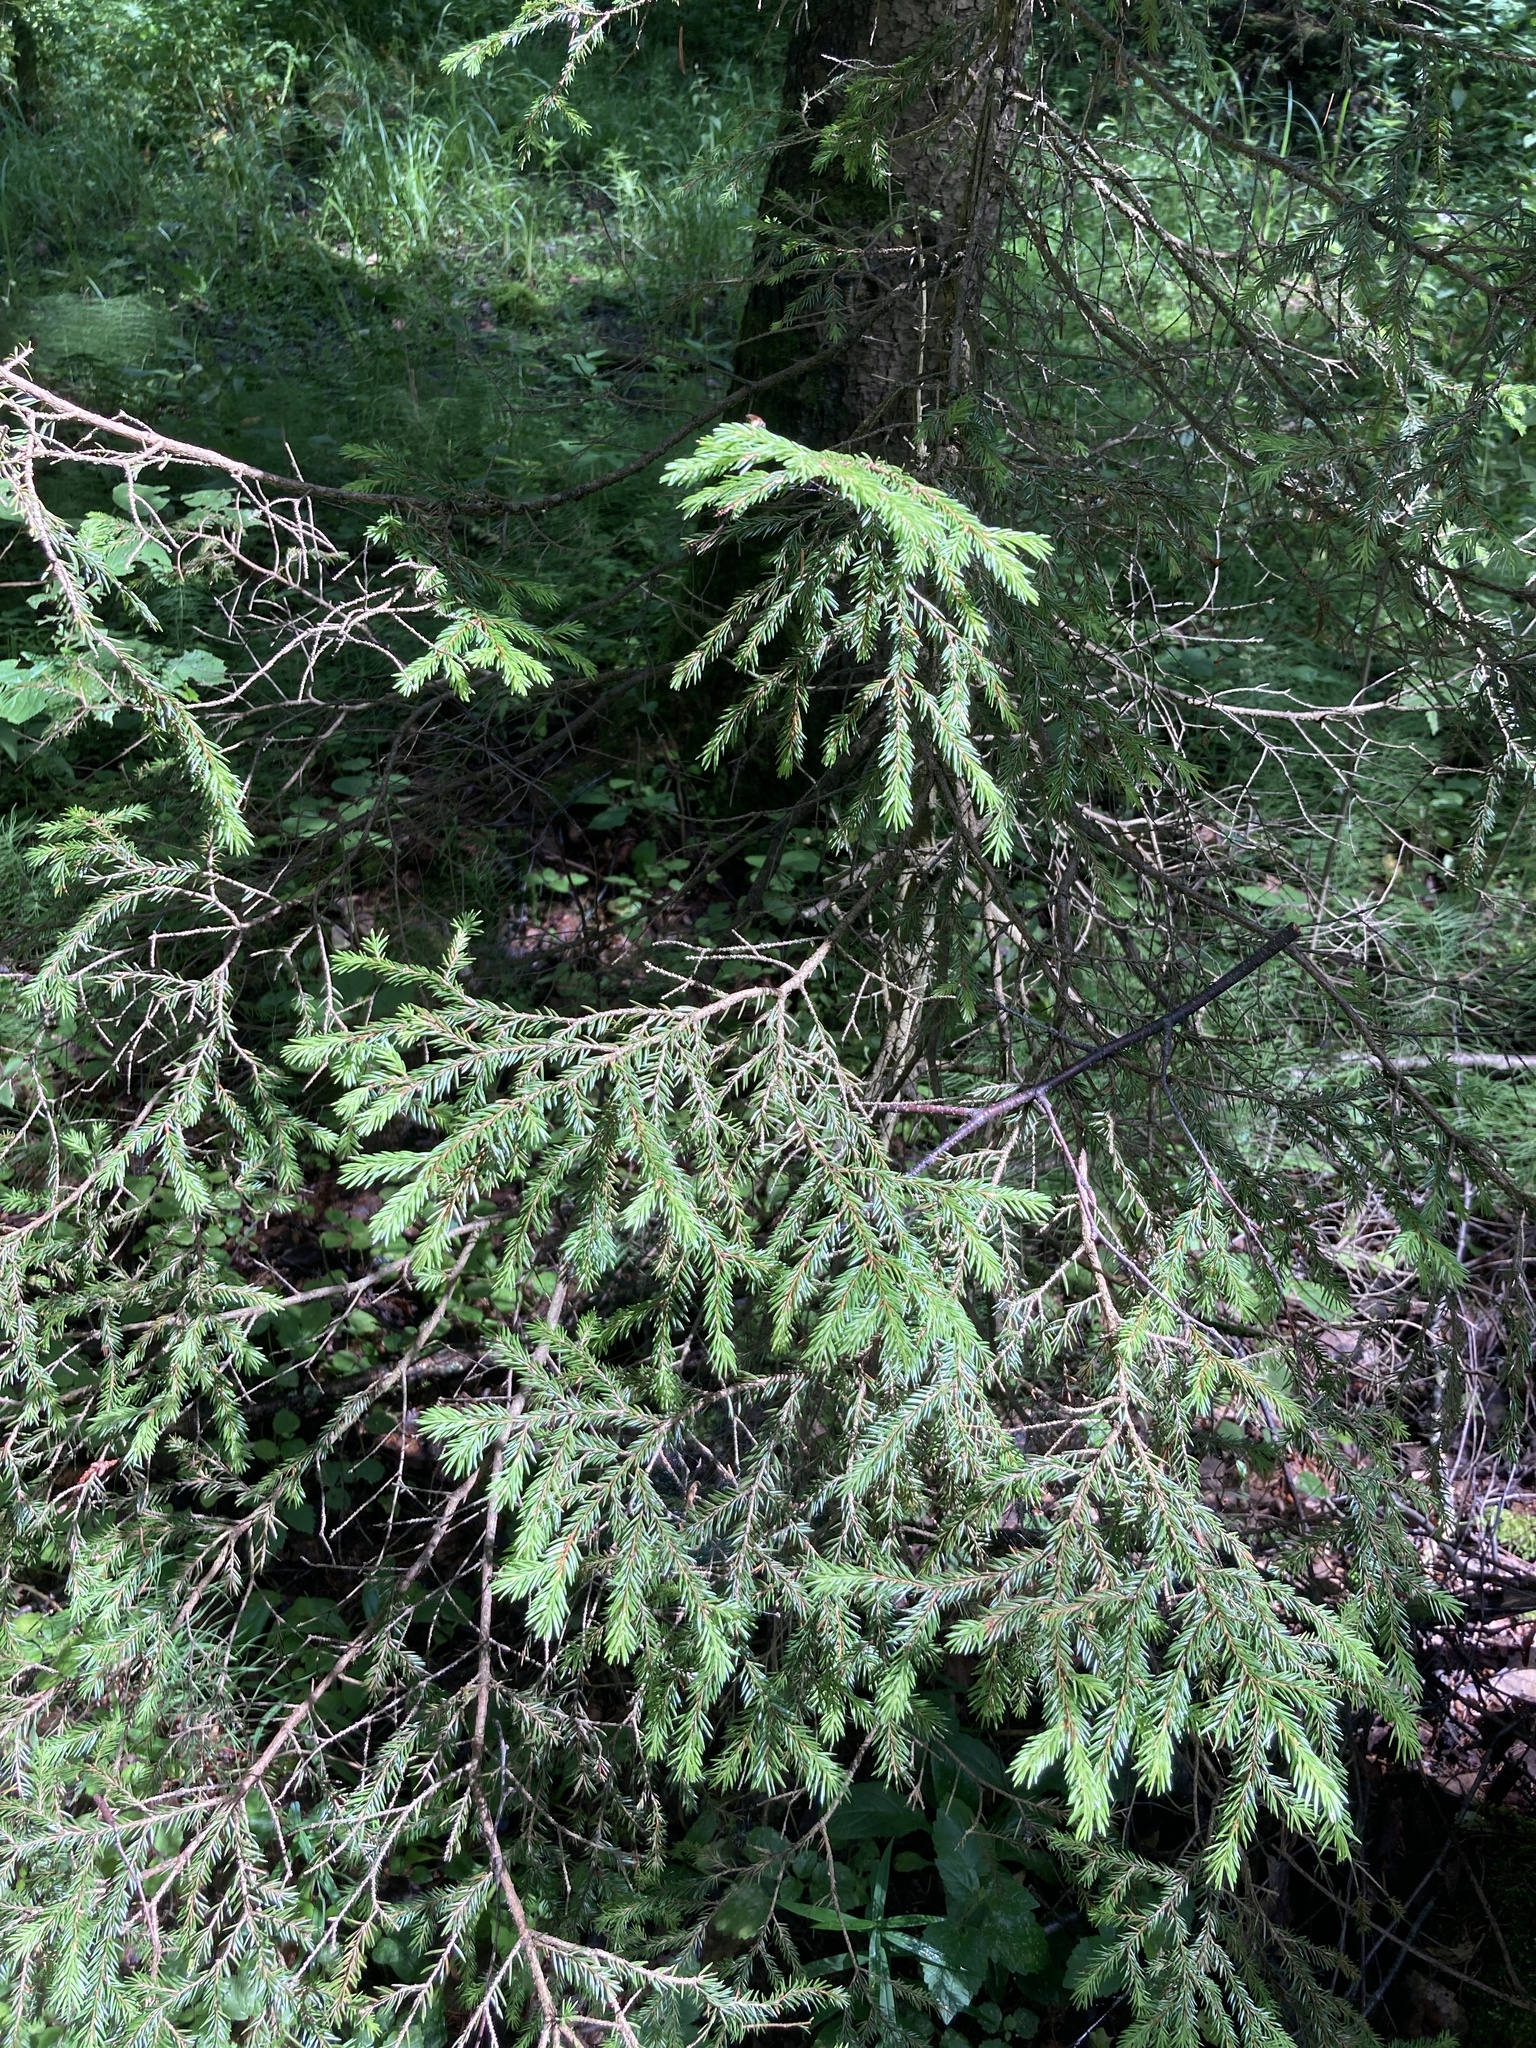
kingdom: Plantae
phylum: Tracheophyta
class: Pinopsida
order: Pinales
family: Pinaceae
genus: Picea
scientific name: Picea abies
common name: Norway spruce
